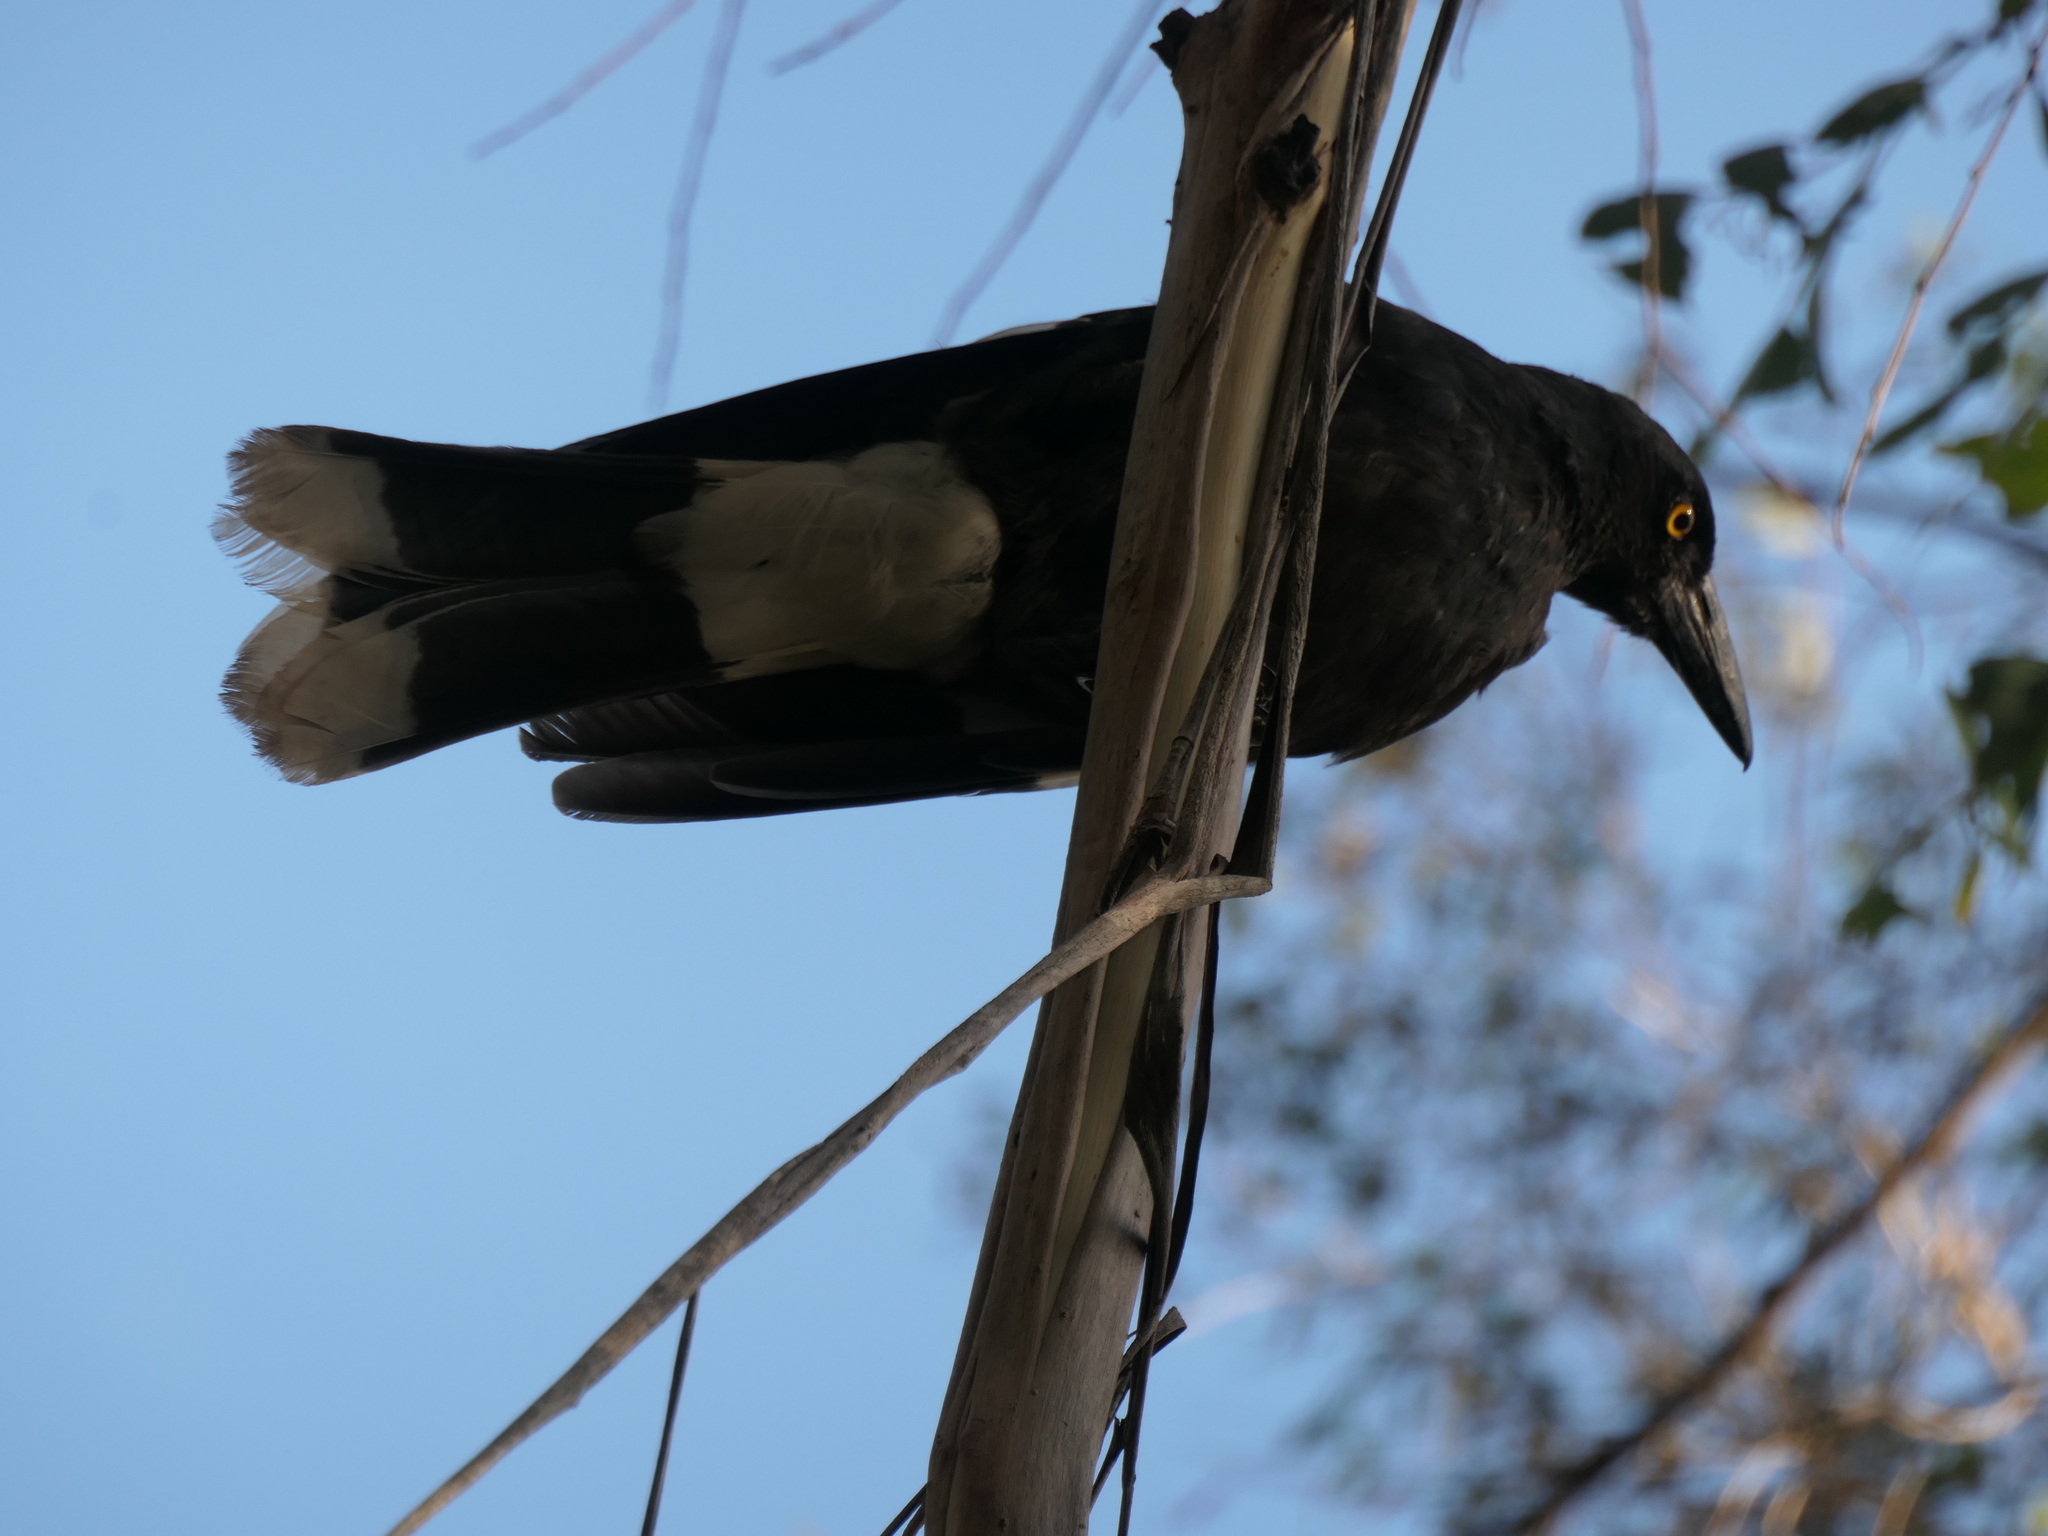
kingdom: Animalia
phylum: Chordata
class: Aves
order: Passeriformes
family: Cracticidae
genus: Strepera
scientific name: Strepera graculina
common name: Pied currawong
